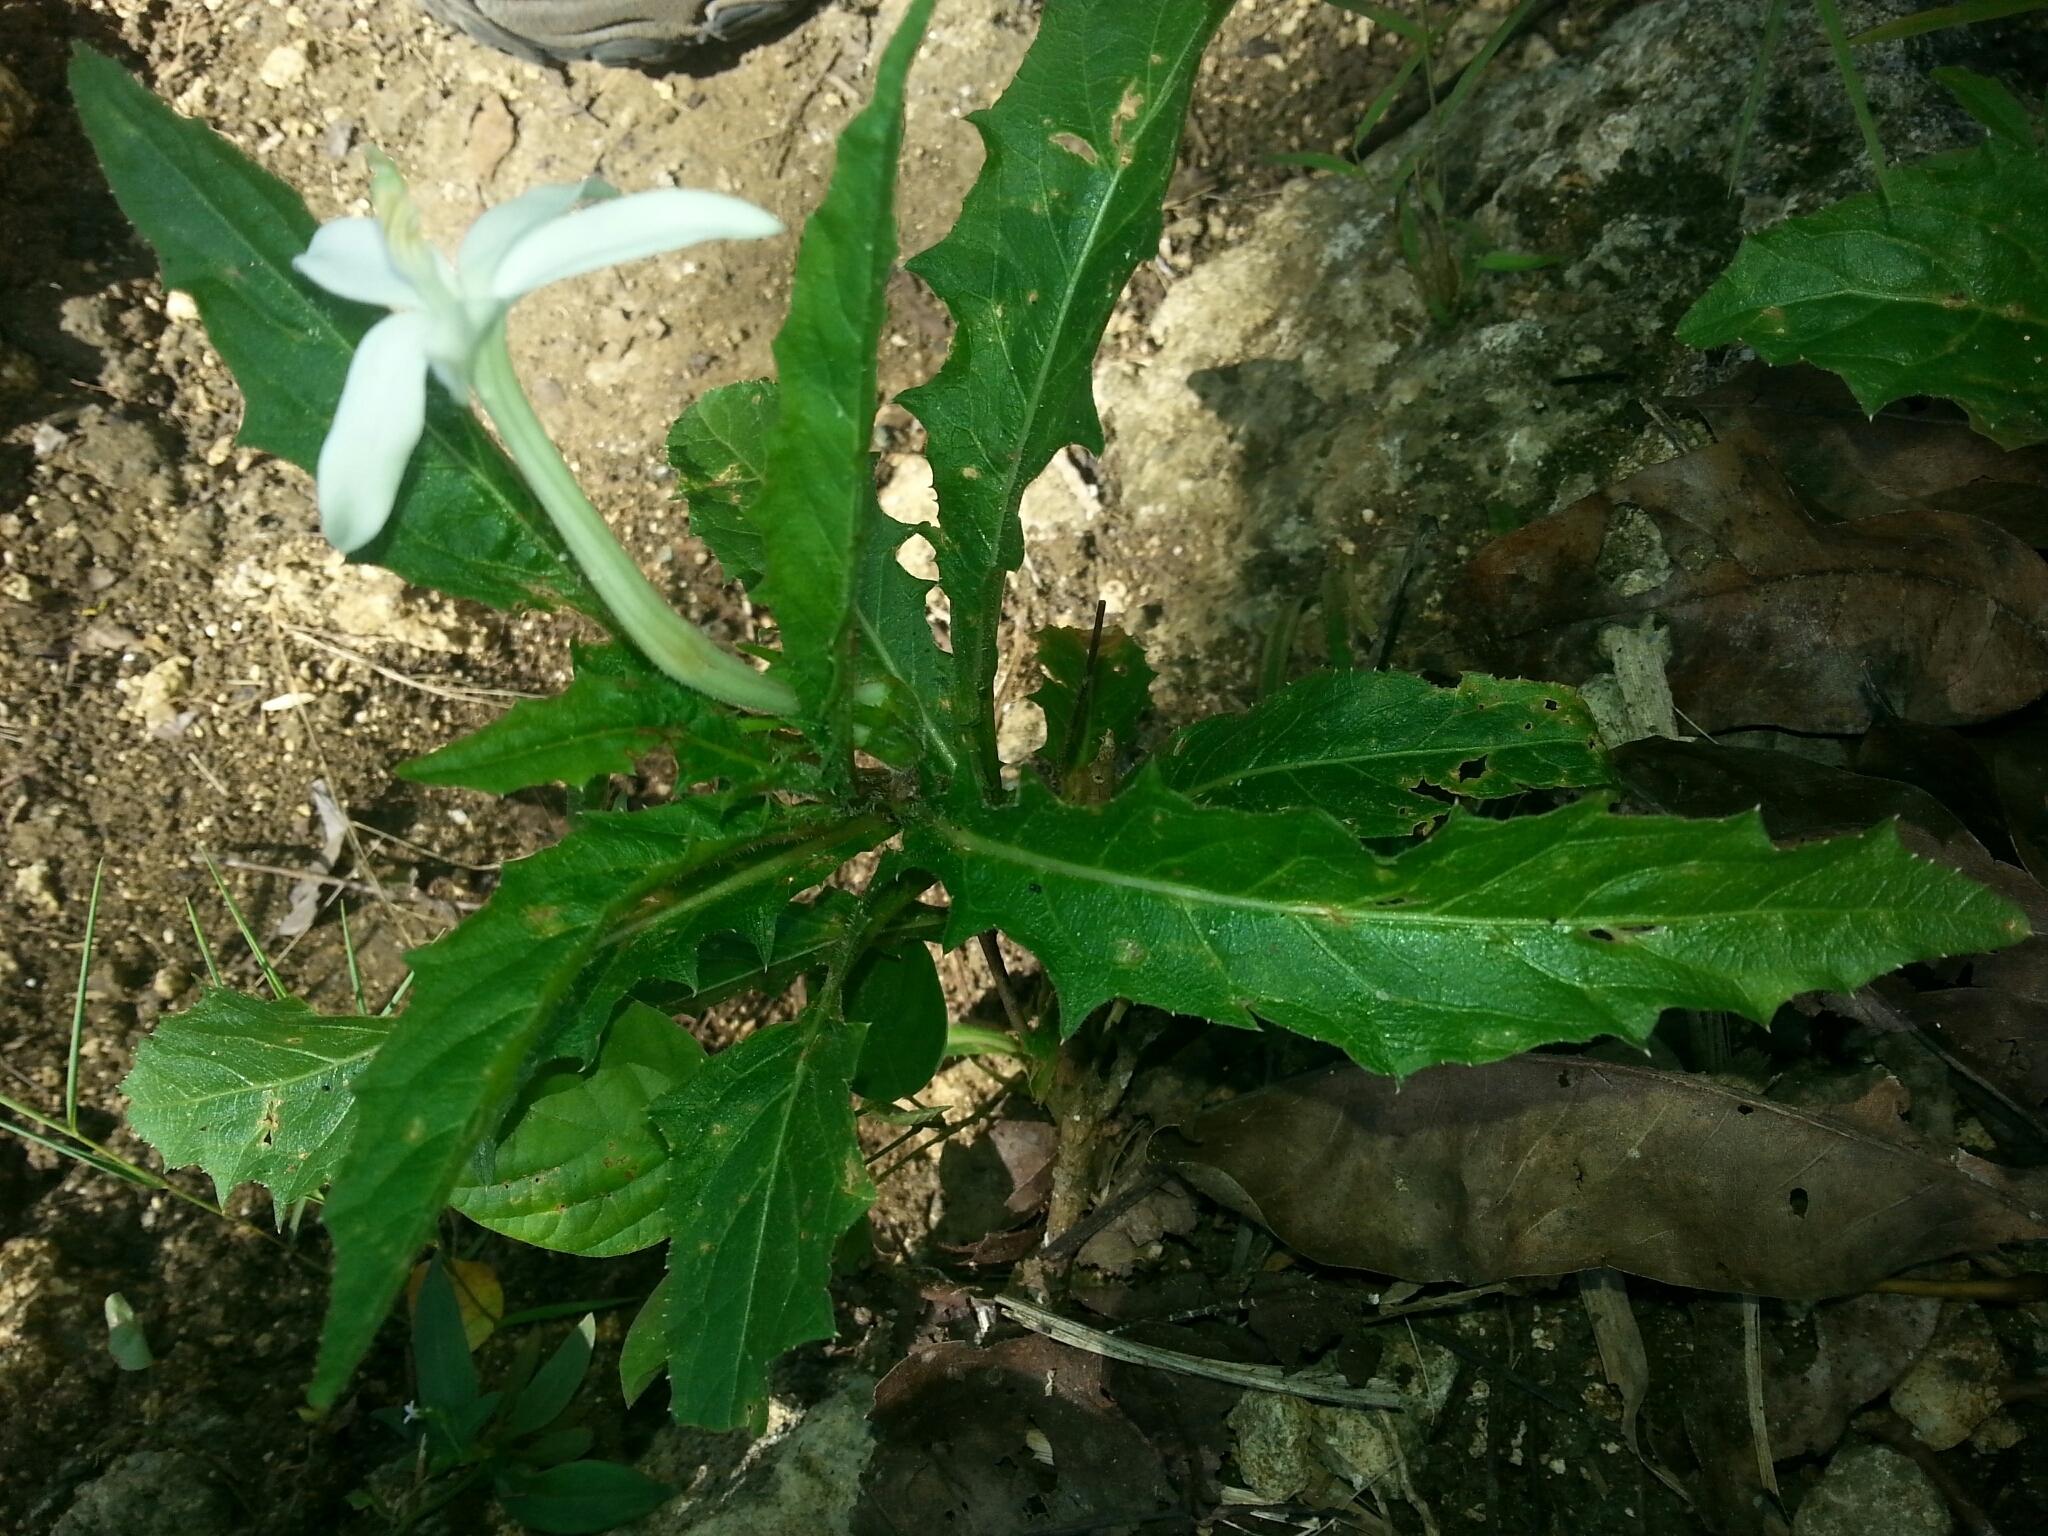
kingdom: Plantae
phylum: Tracheophyta
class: Magnoliopsida
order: Asterales
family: Campanulaceae
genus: Hippobroma
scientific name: Hippobroma longiflora
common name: Madamfate
